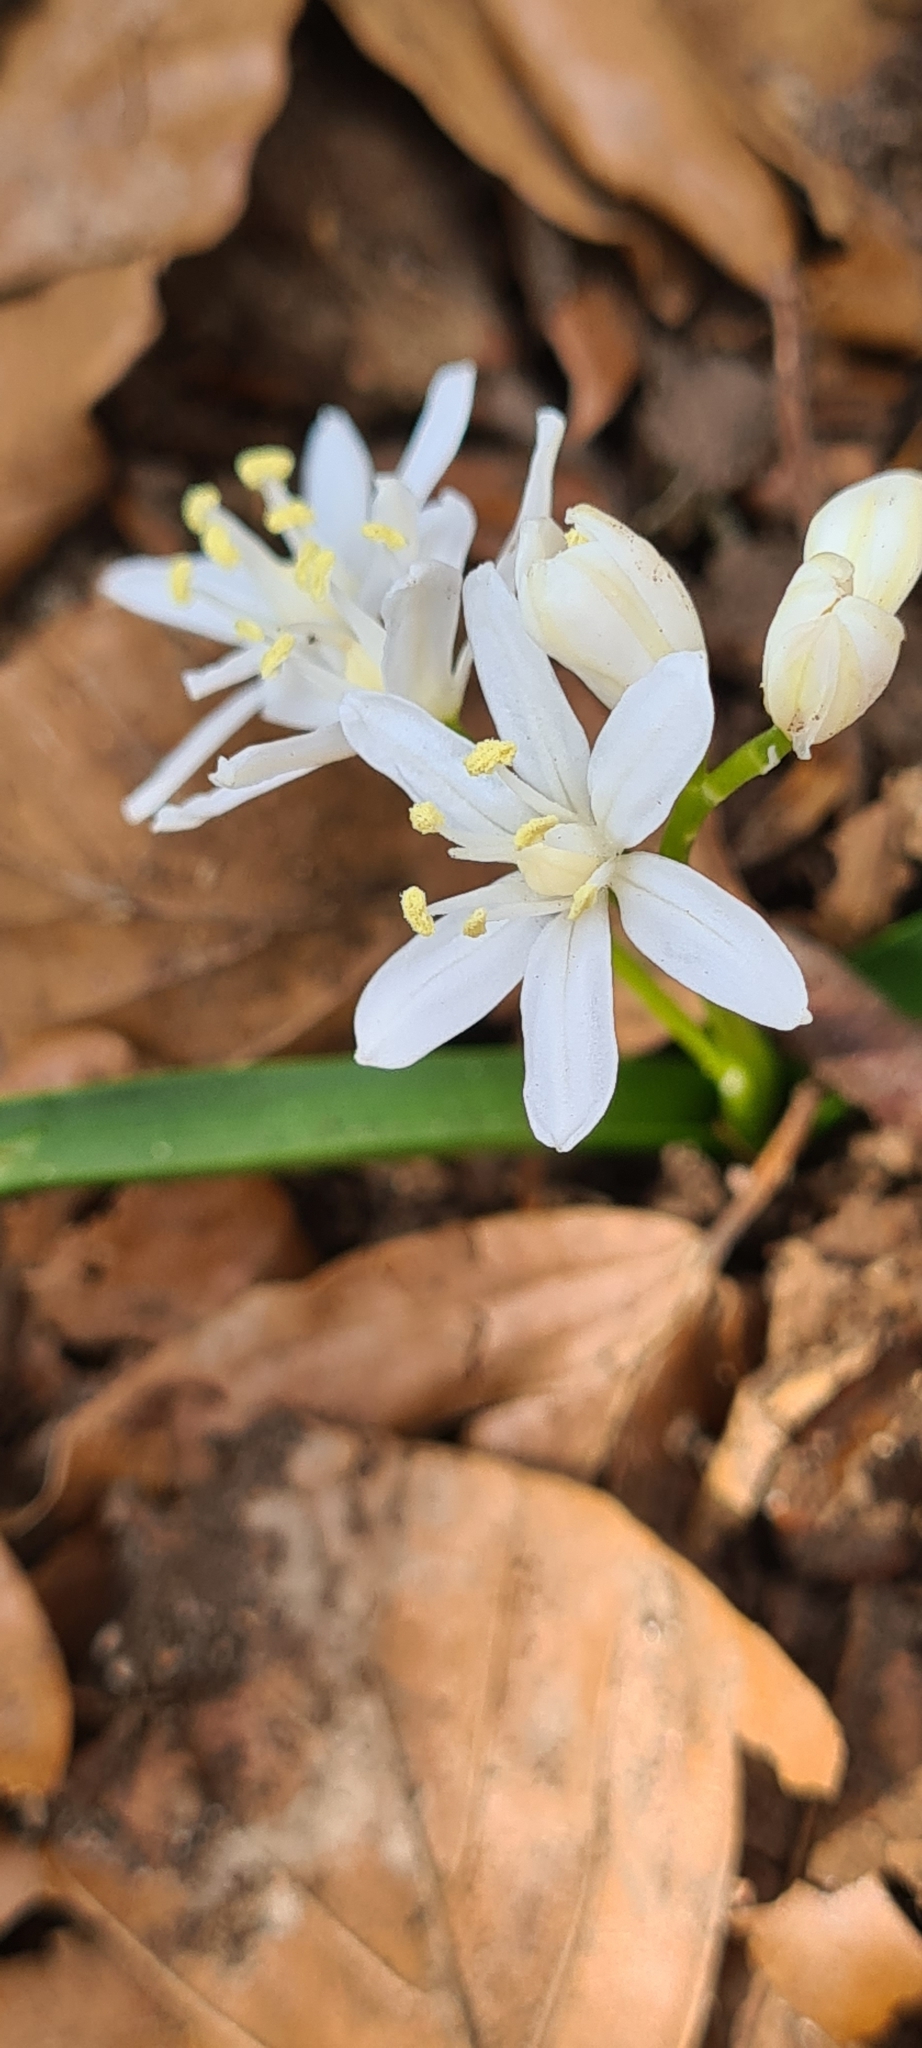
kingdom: Plantae
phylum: Tracheophyta
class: Liliopsida
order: Asparagales
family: Asparagaceae
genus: Scilla
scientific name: Scilla bifolia
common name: Alpine squill
